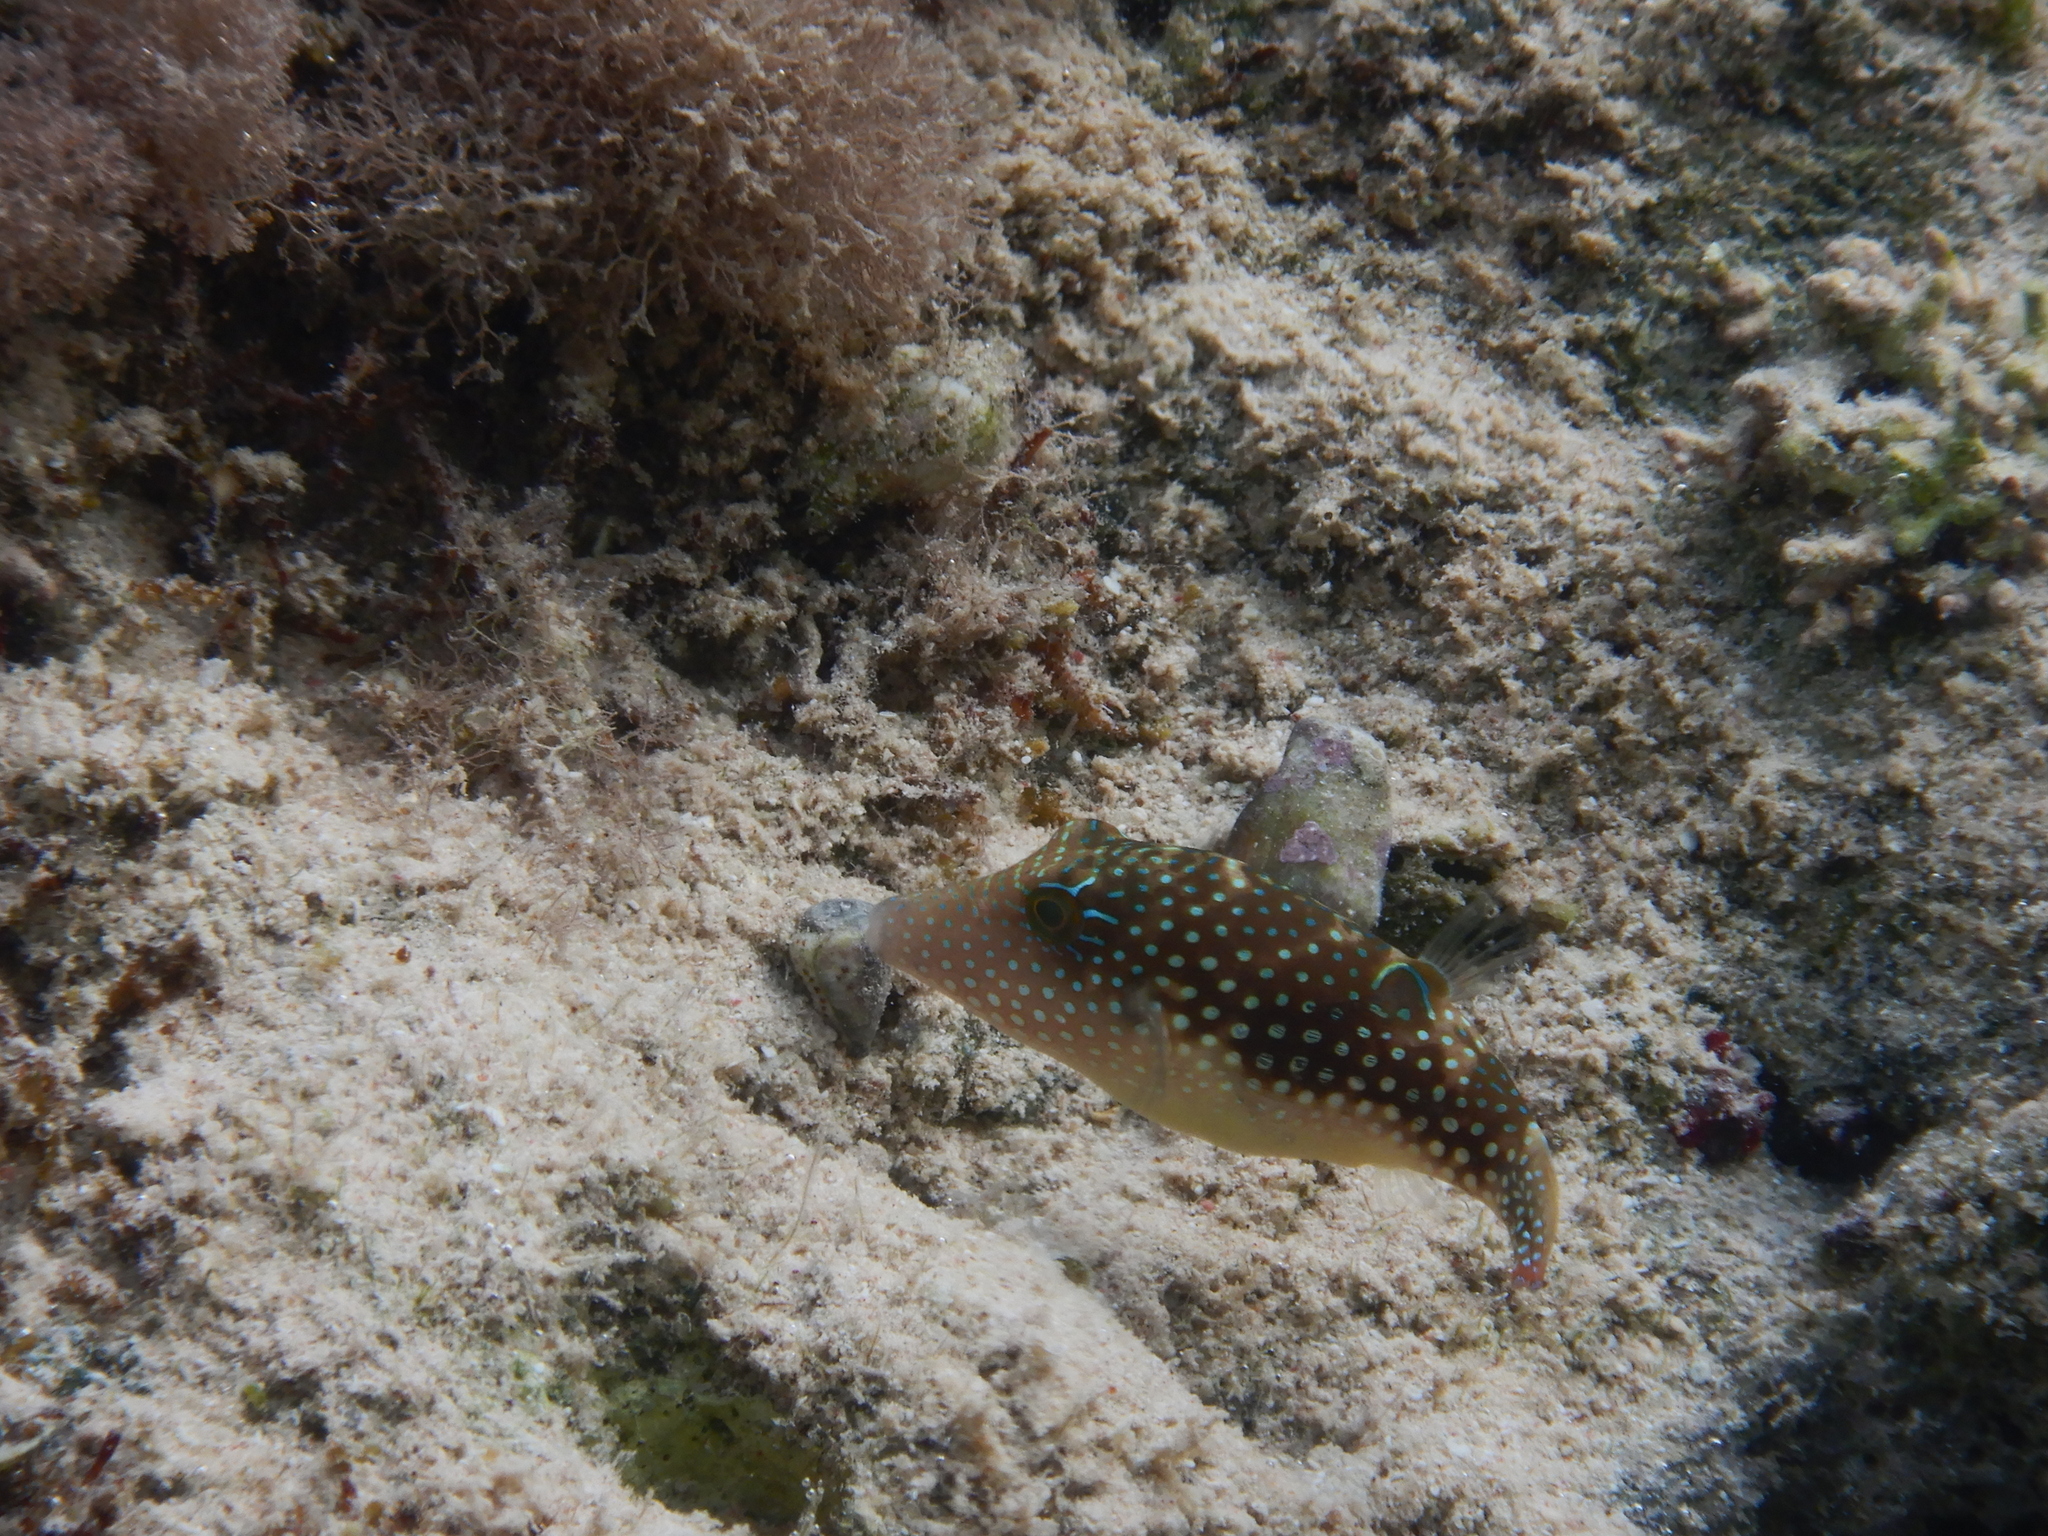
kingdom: Animalia
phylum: Chordata
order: Tetraodontiformes
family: Tetraodontidae
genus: Canthigaster
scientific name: Canthigaster margaritata
